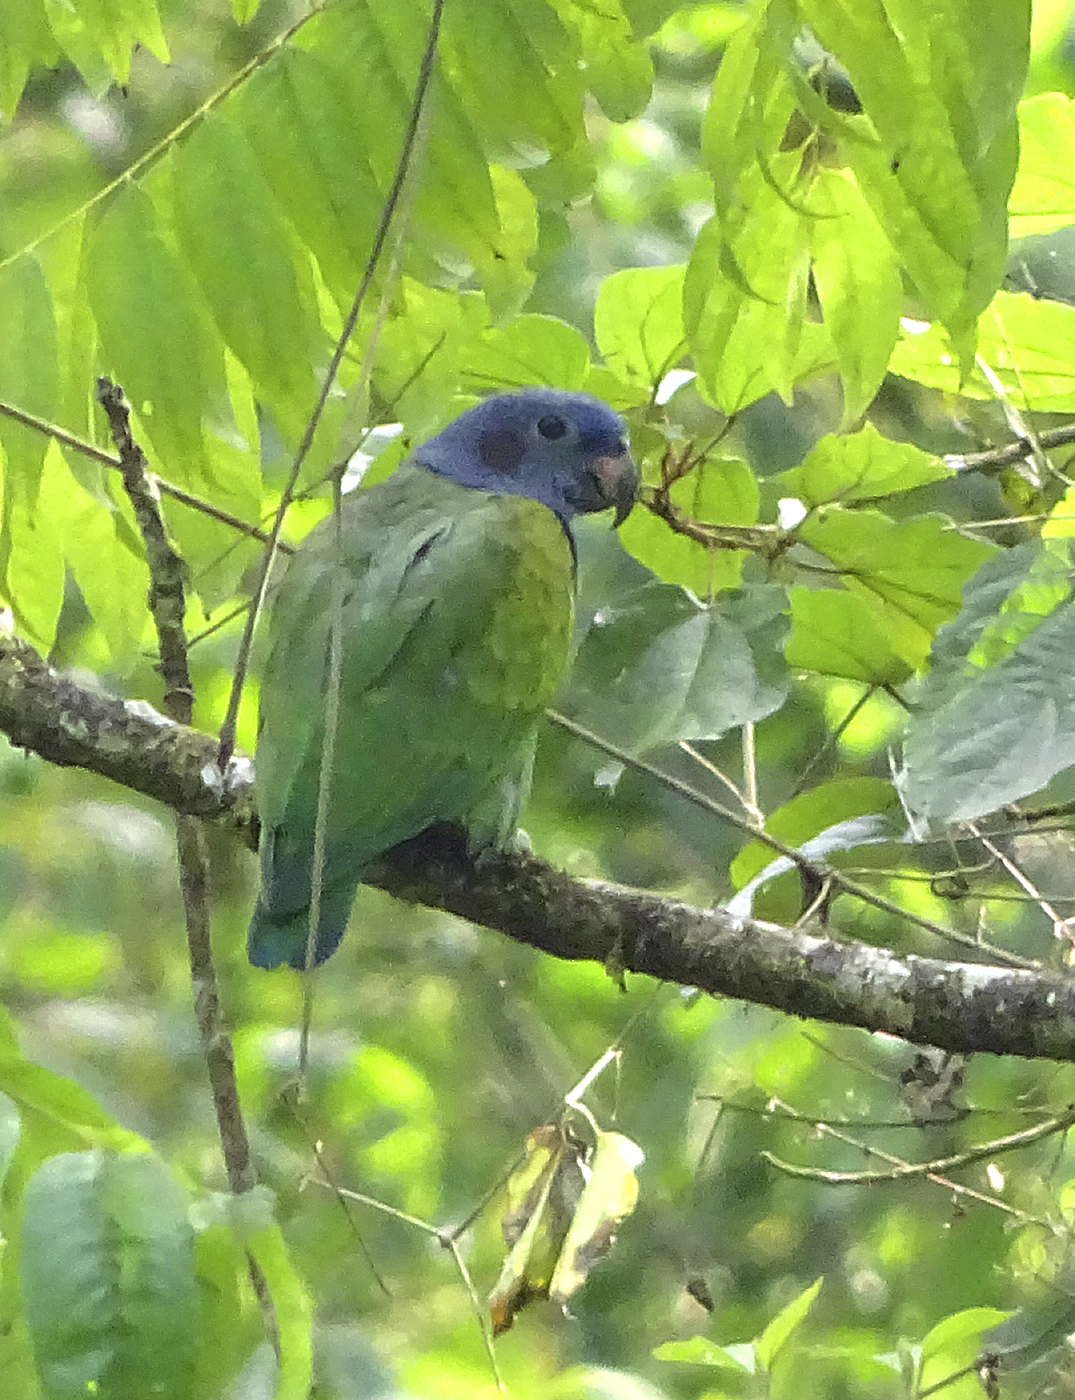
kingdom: Animalia
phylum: Chordata
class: Aves
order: Psittaciformes
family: Psittacidae
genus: Pionus
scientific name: Pionus menstruus
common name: Blue-headed parrot
